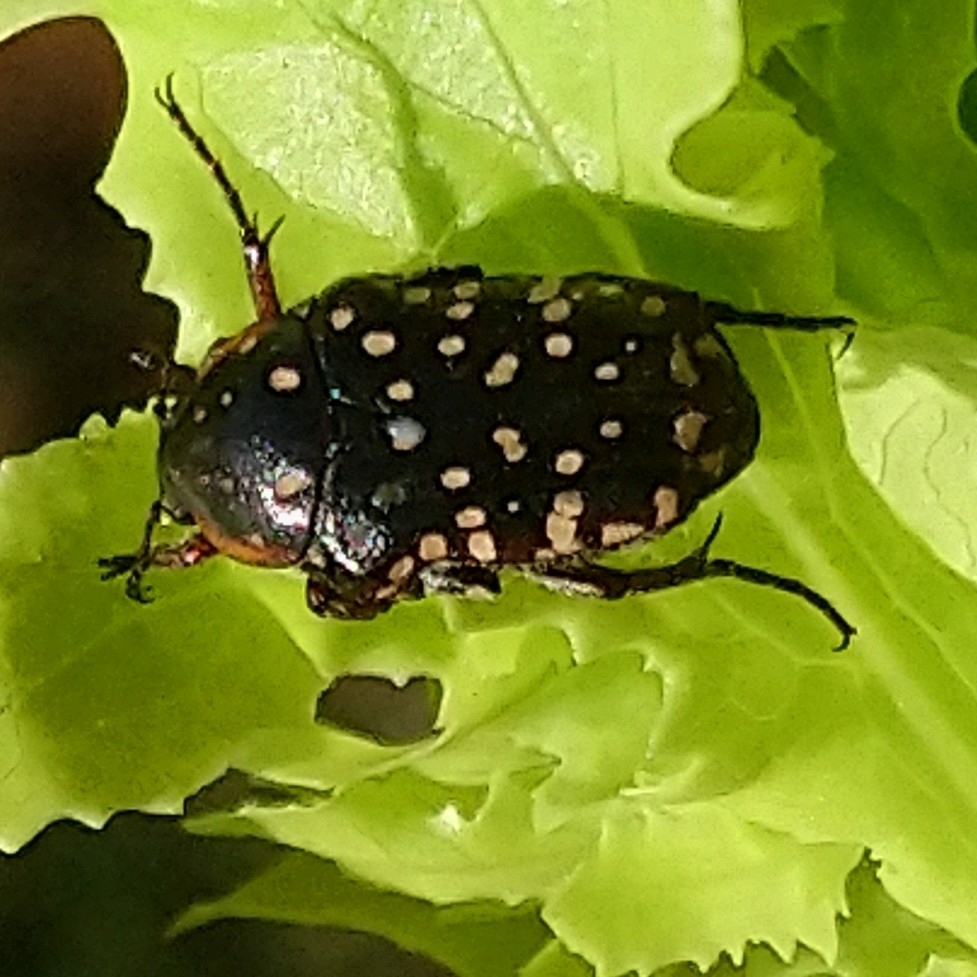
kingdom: Animalia
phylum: Arthropoda
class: Insecta
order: Coleoptera
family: Scarabaeidae
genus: Oxythyrea
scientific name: Oxythyrea
